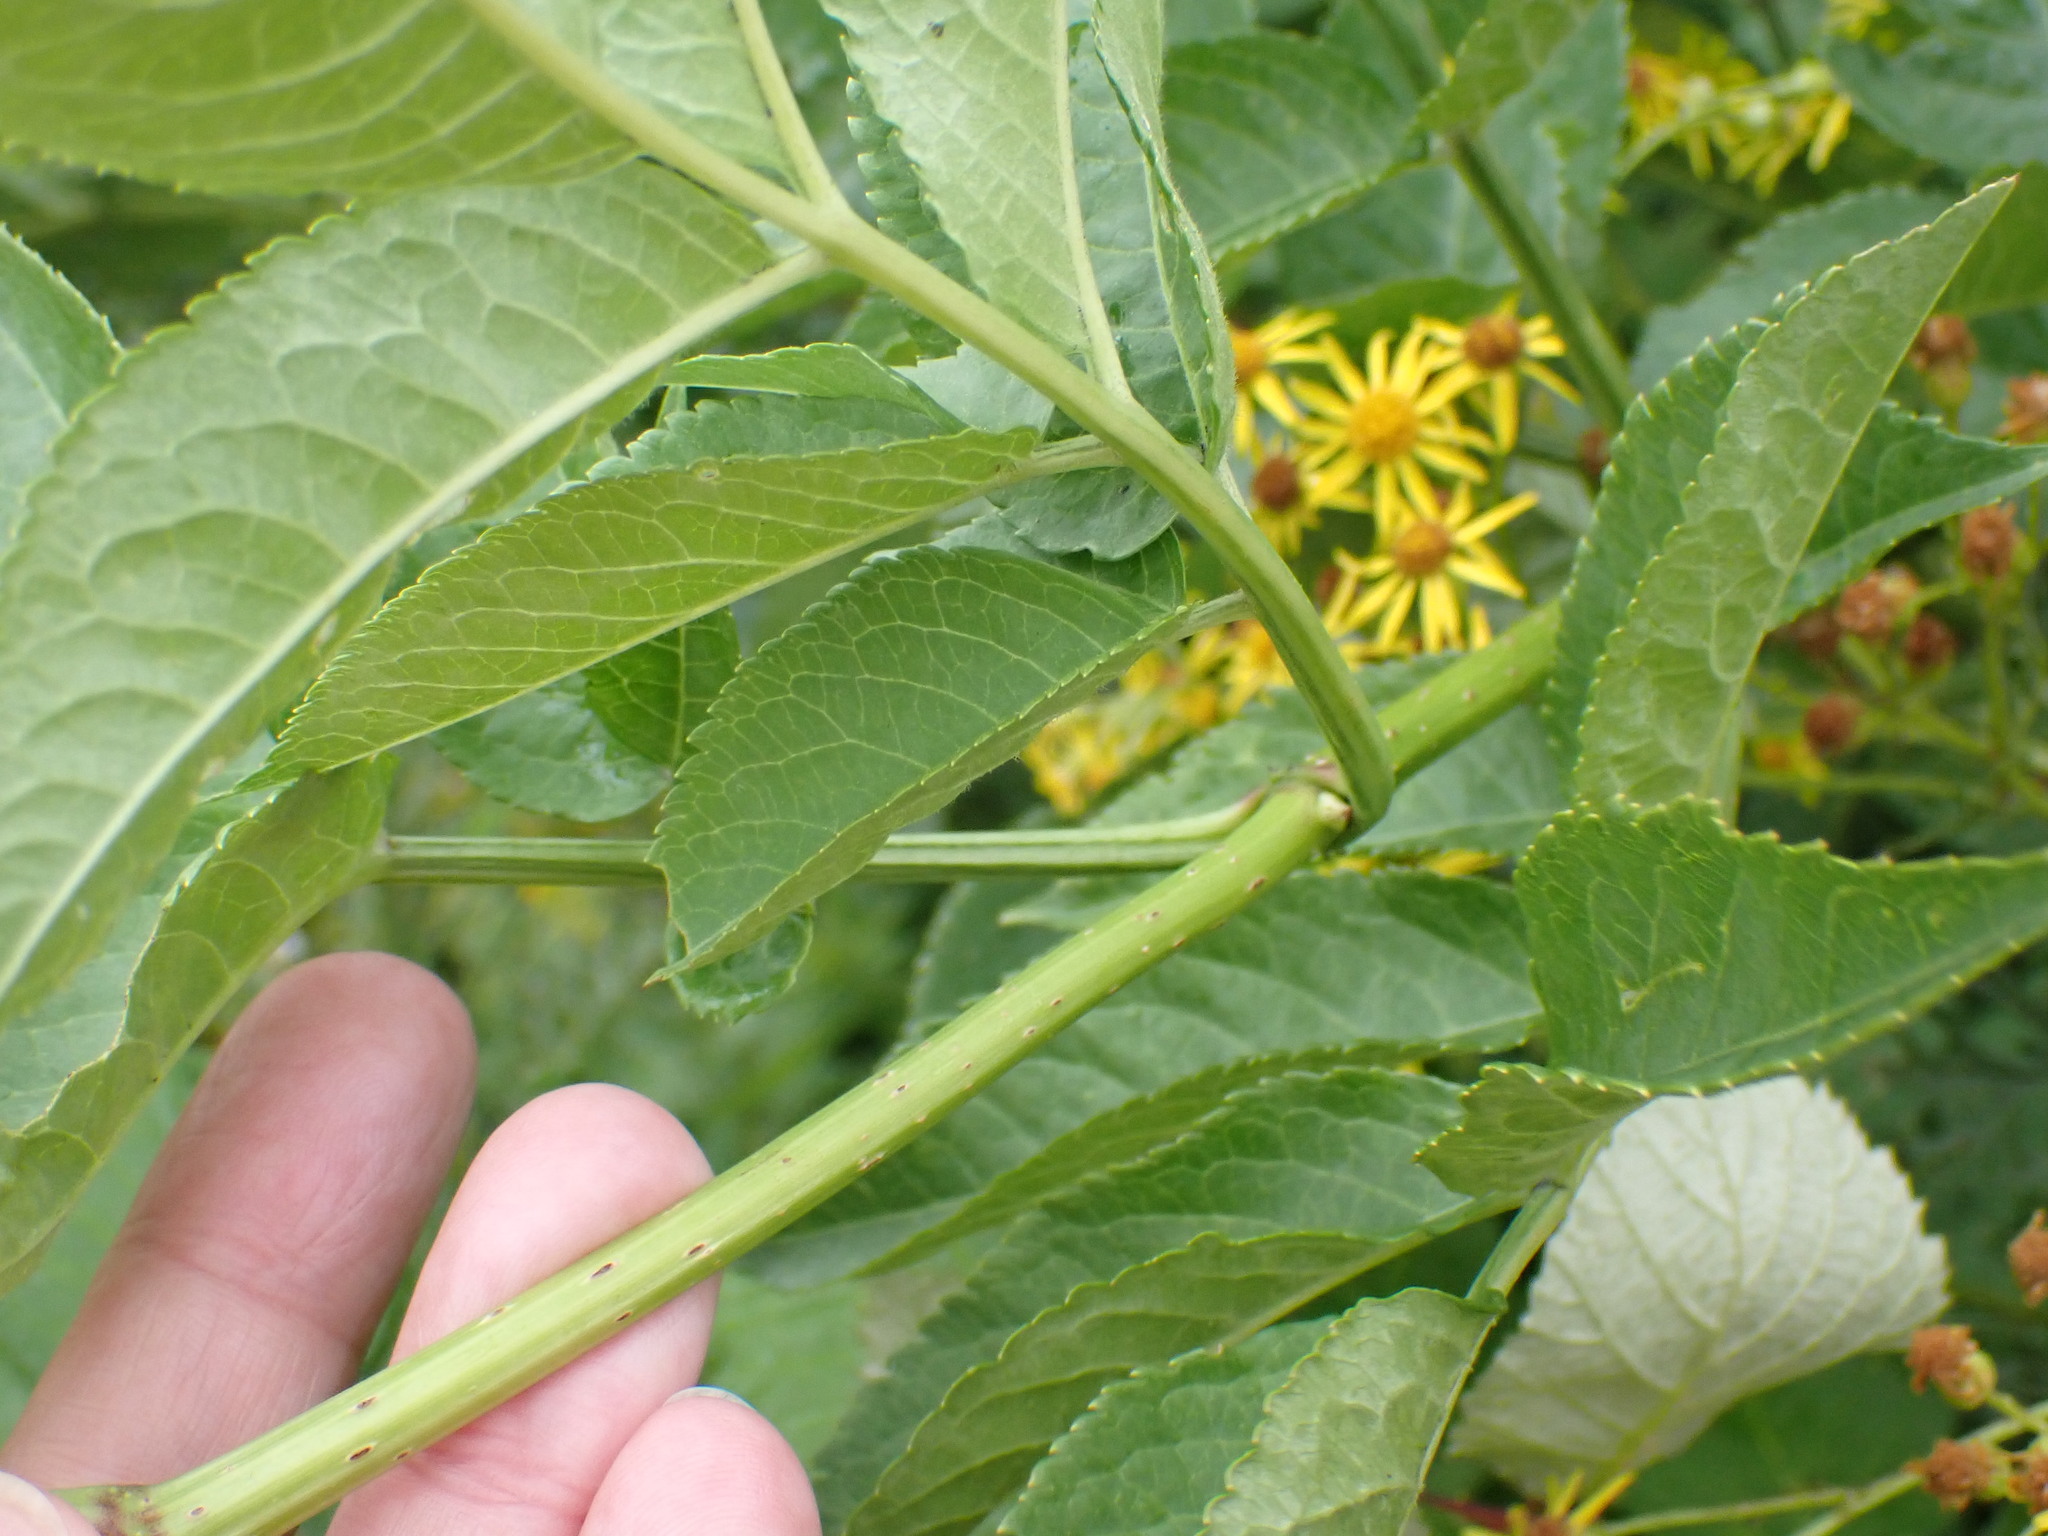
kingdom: Plantae
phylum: Tracheophyta
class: Magnoliopsida
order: Dipsacales
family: Viburnaceae
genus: Sambucus
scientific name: Sambucus nigra
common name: Elder
